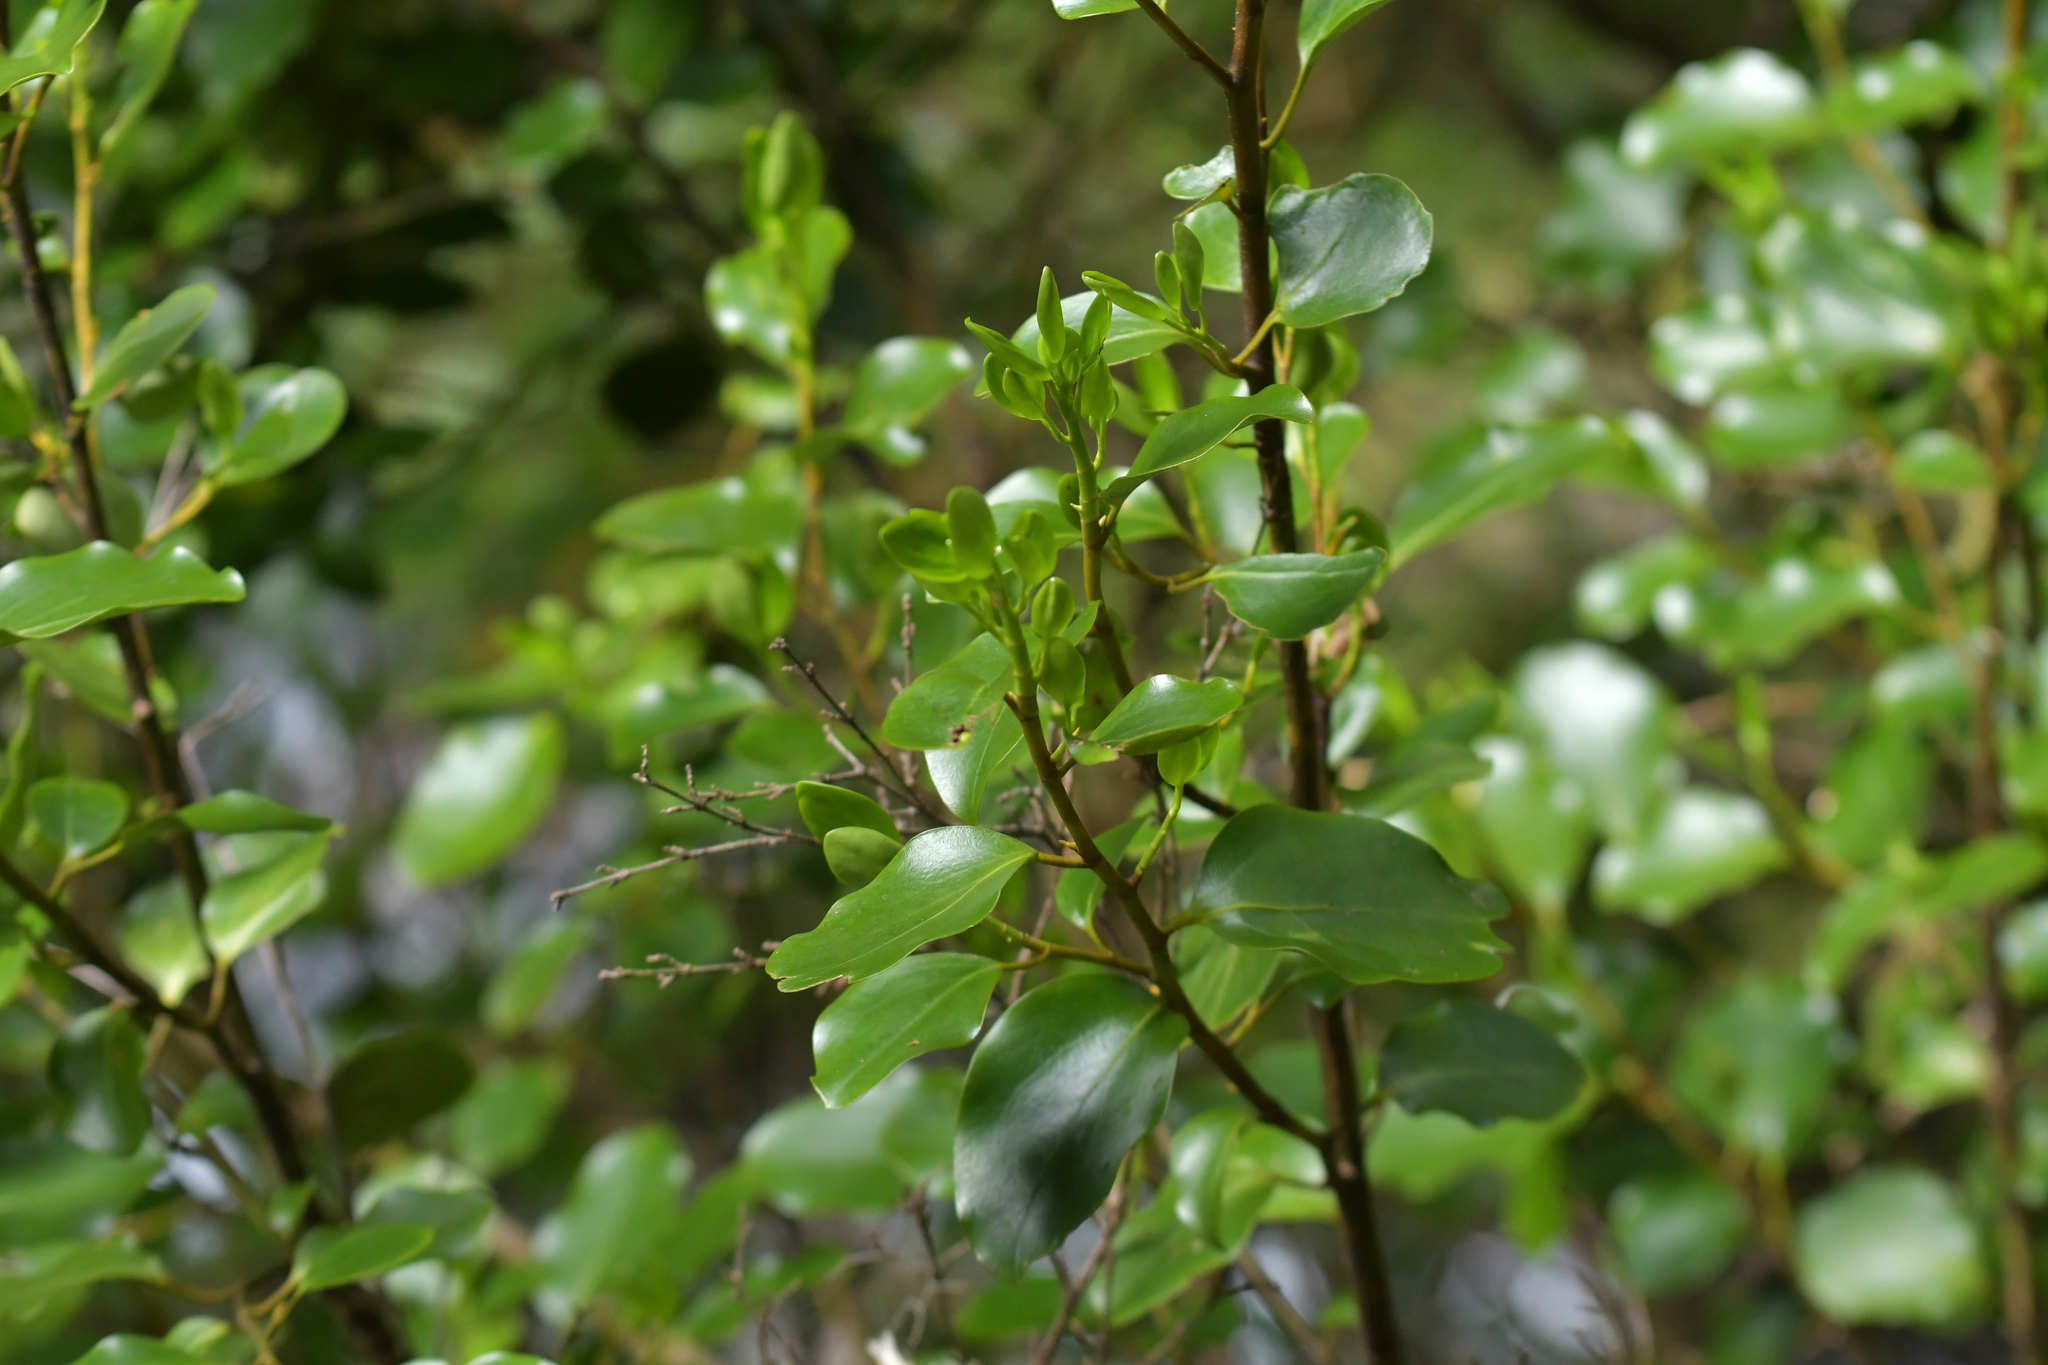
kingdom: Plantae
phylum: Tracheophyta
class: Magnoliopsida
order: Apiales
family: Griseliniaceae
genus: Griselinia
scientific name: Griselinia littoralis
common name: New zealand broadleaf
